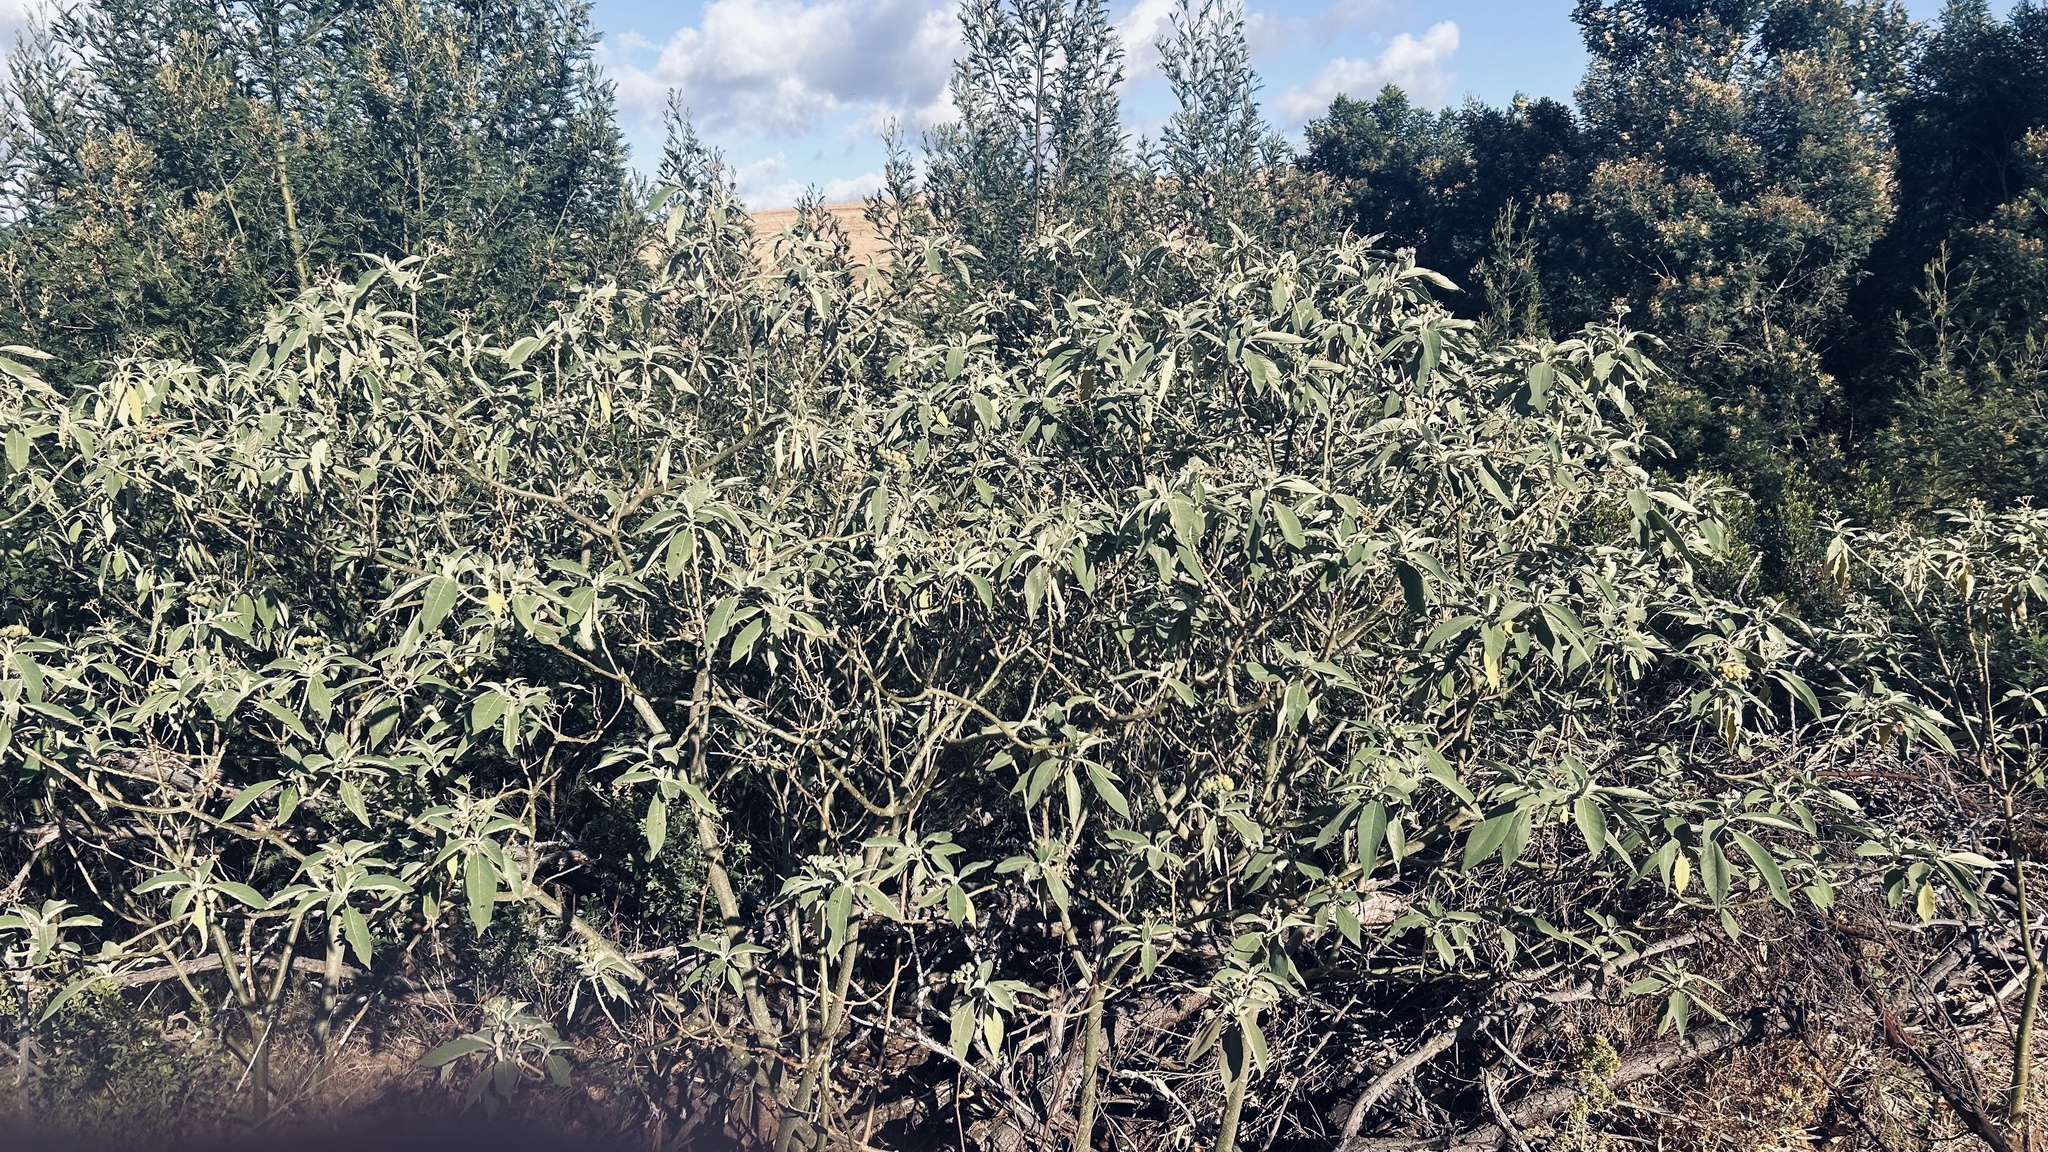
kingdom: Plantae
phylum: Tracheophyta
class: Magnoliopsida
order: Solanales
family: Solanaceae
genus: Solanum
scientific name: Solanum mauritianum
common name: Earleaf nightshade
